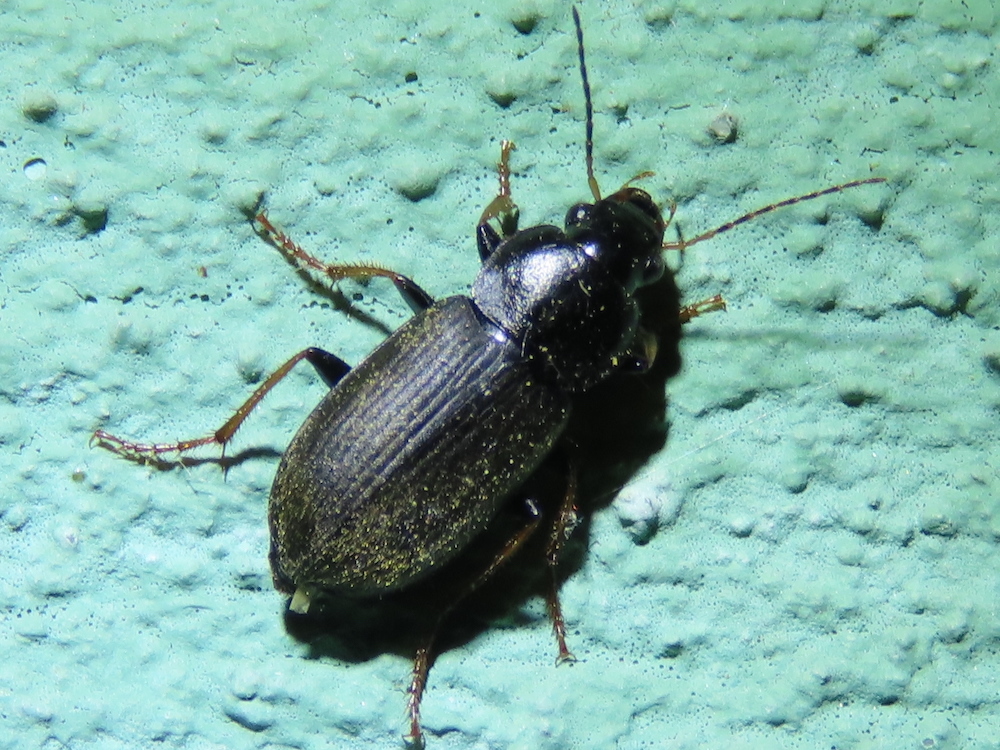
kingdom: Animalia
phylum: Arthropoda
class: Insecta
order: Coleoptera
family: Carabidae
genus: Amphasia
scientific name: Amphasia sericea
